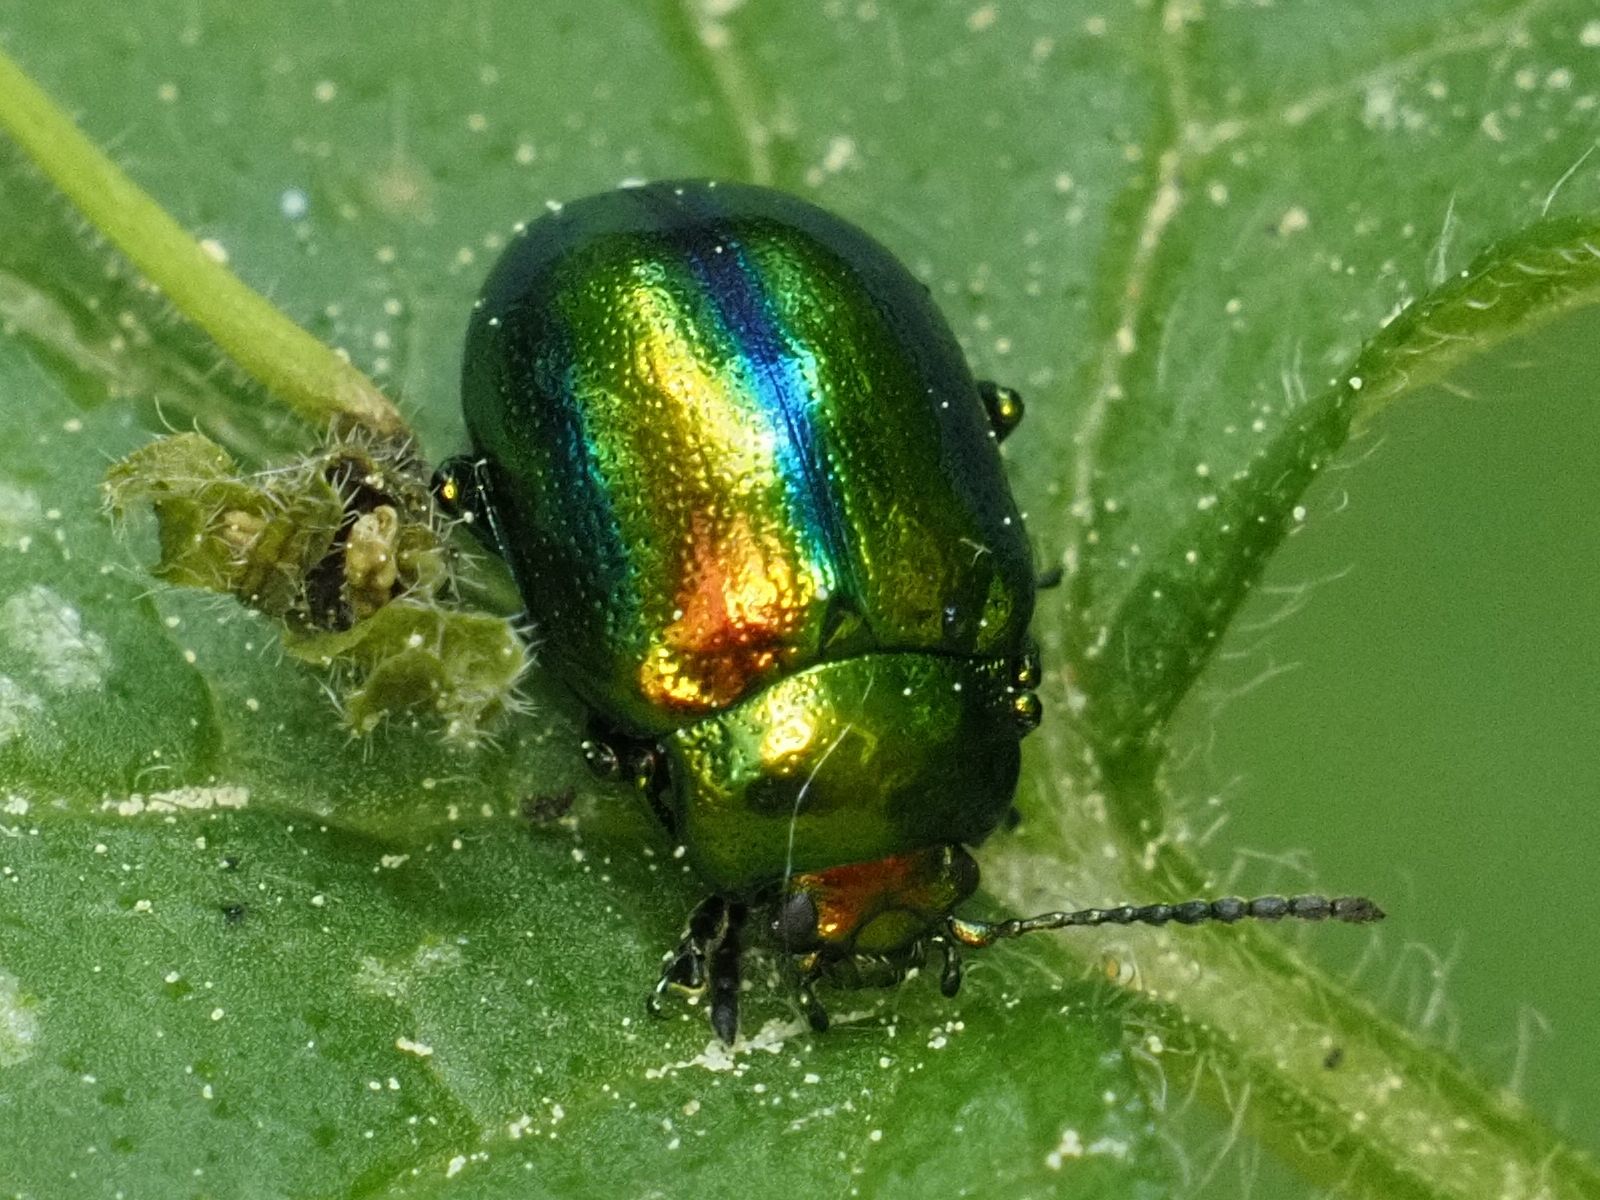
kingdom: Animalia
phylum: Arthropoda
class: Insecta
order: Coleoptera
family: Chrysomelidae
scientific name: Chrysomelidae
